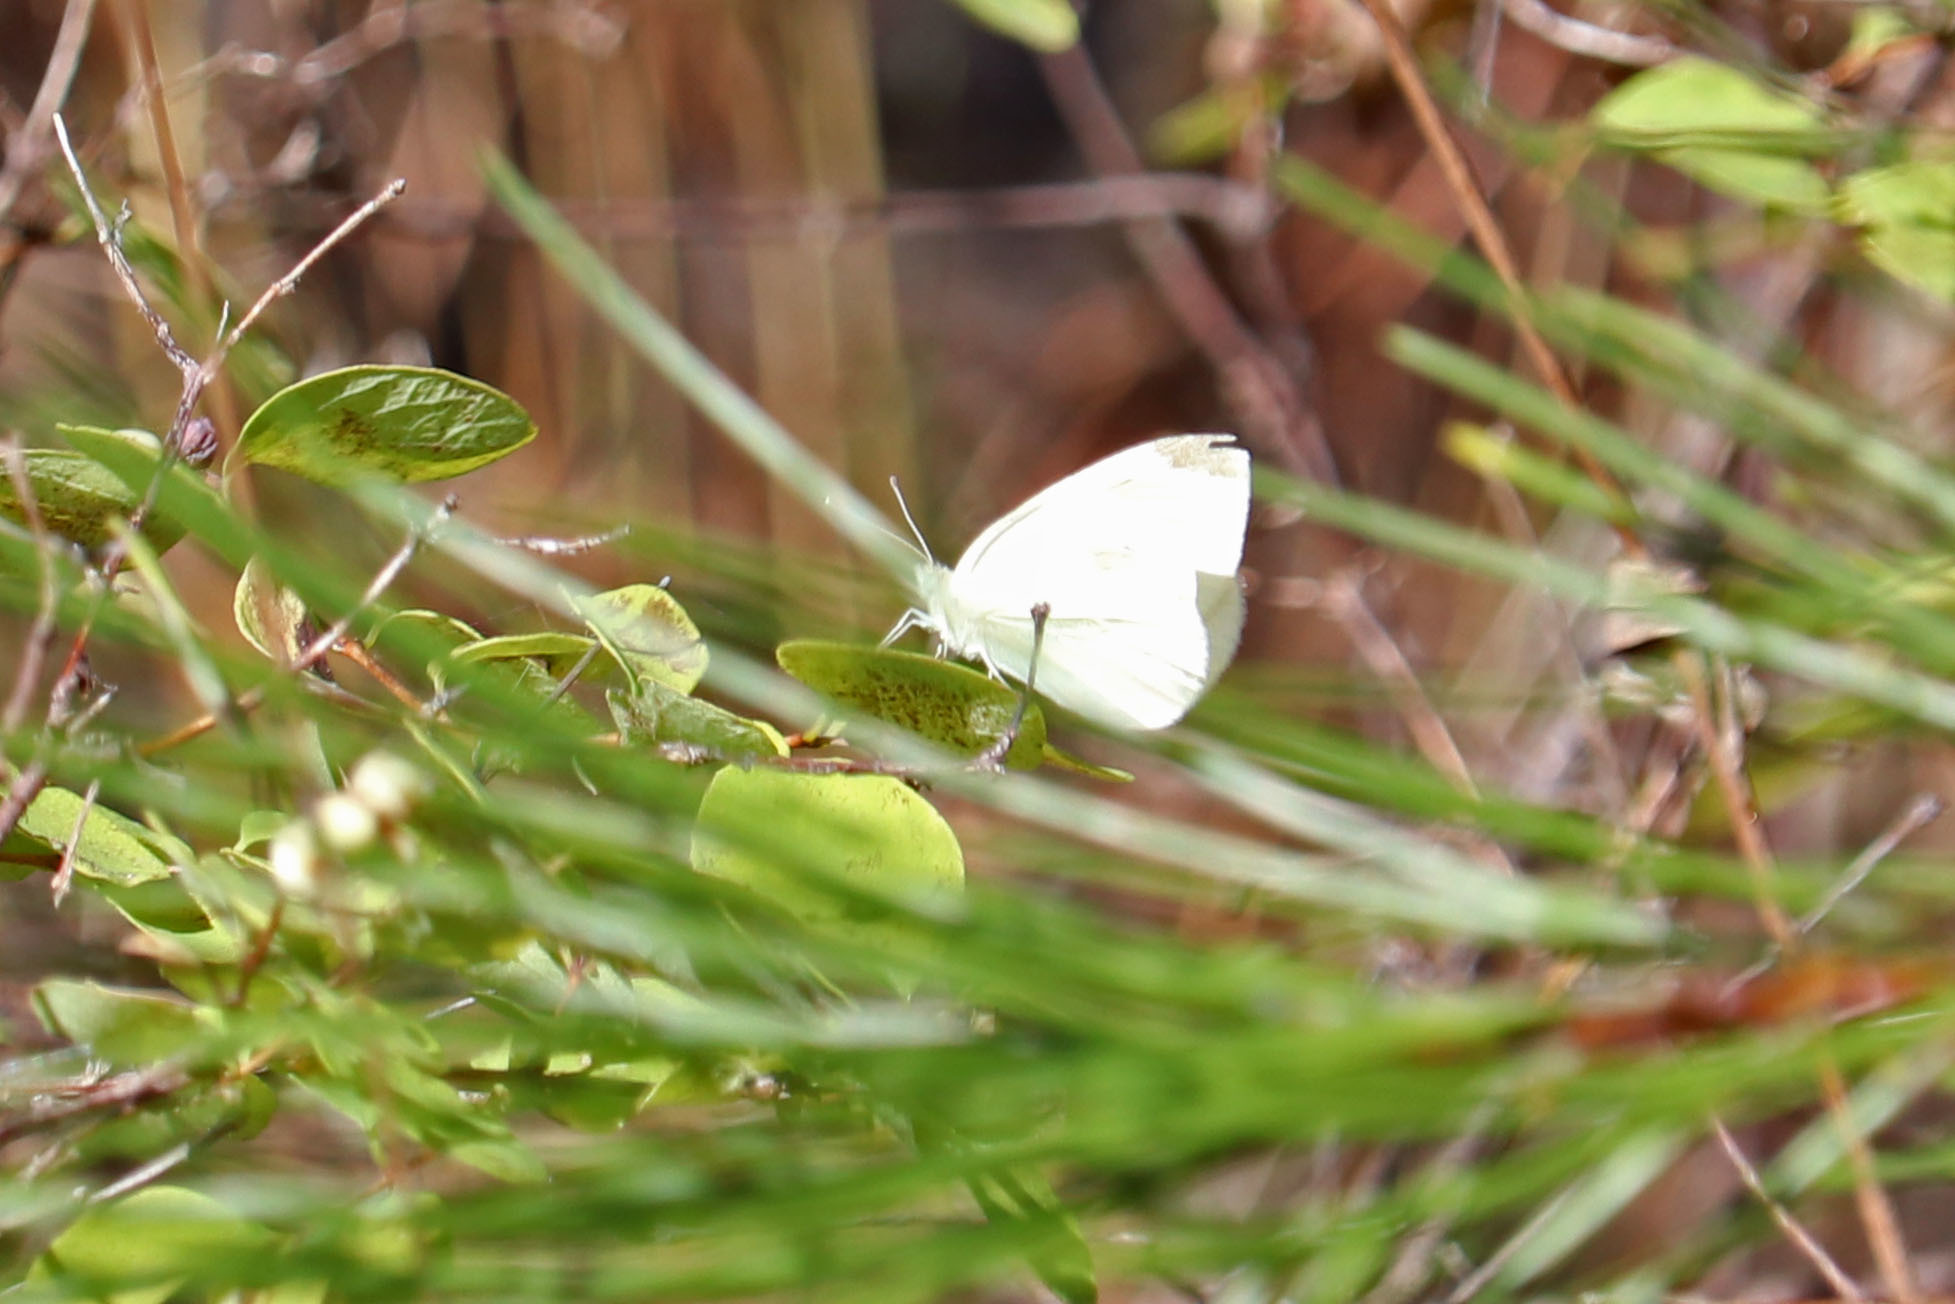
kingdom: Animalia
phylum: Arthropoda
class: Insecta
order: Lepidoptera
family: Pieridae
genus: Pieris
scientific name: Pieris rapae
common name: Small white
